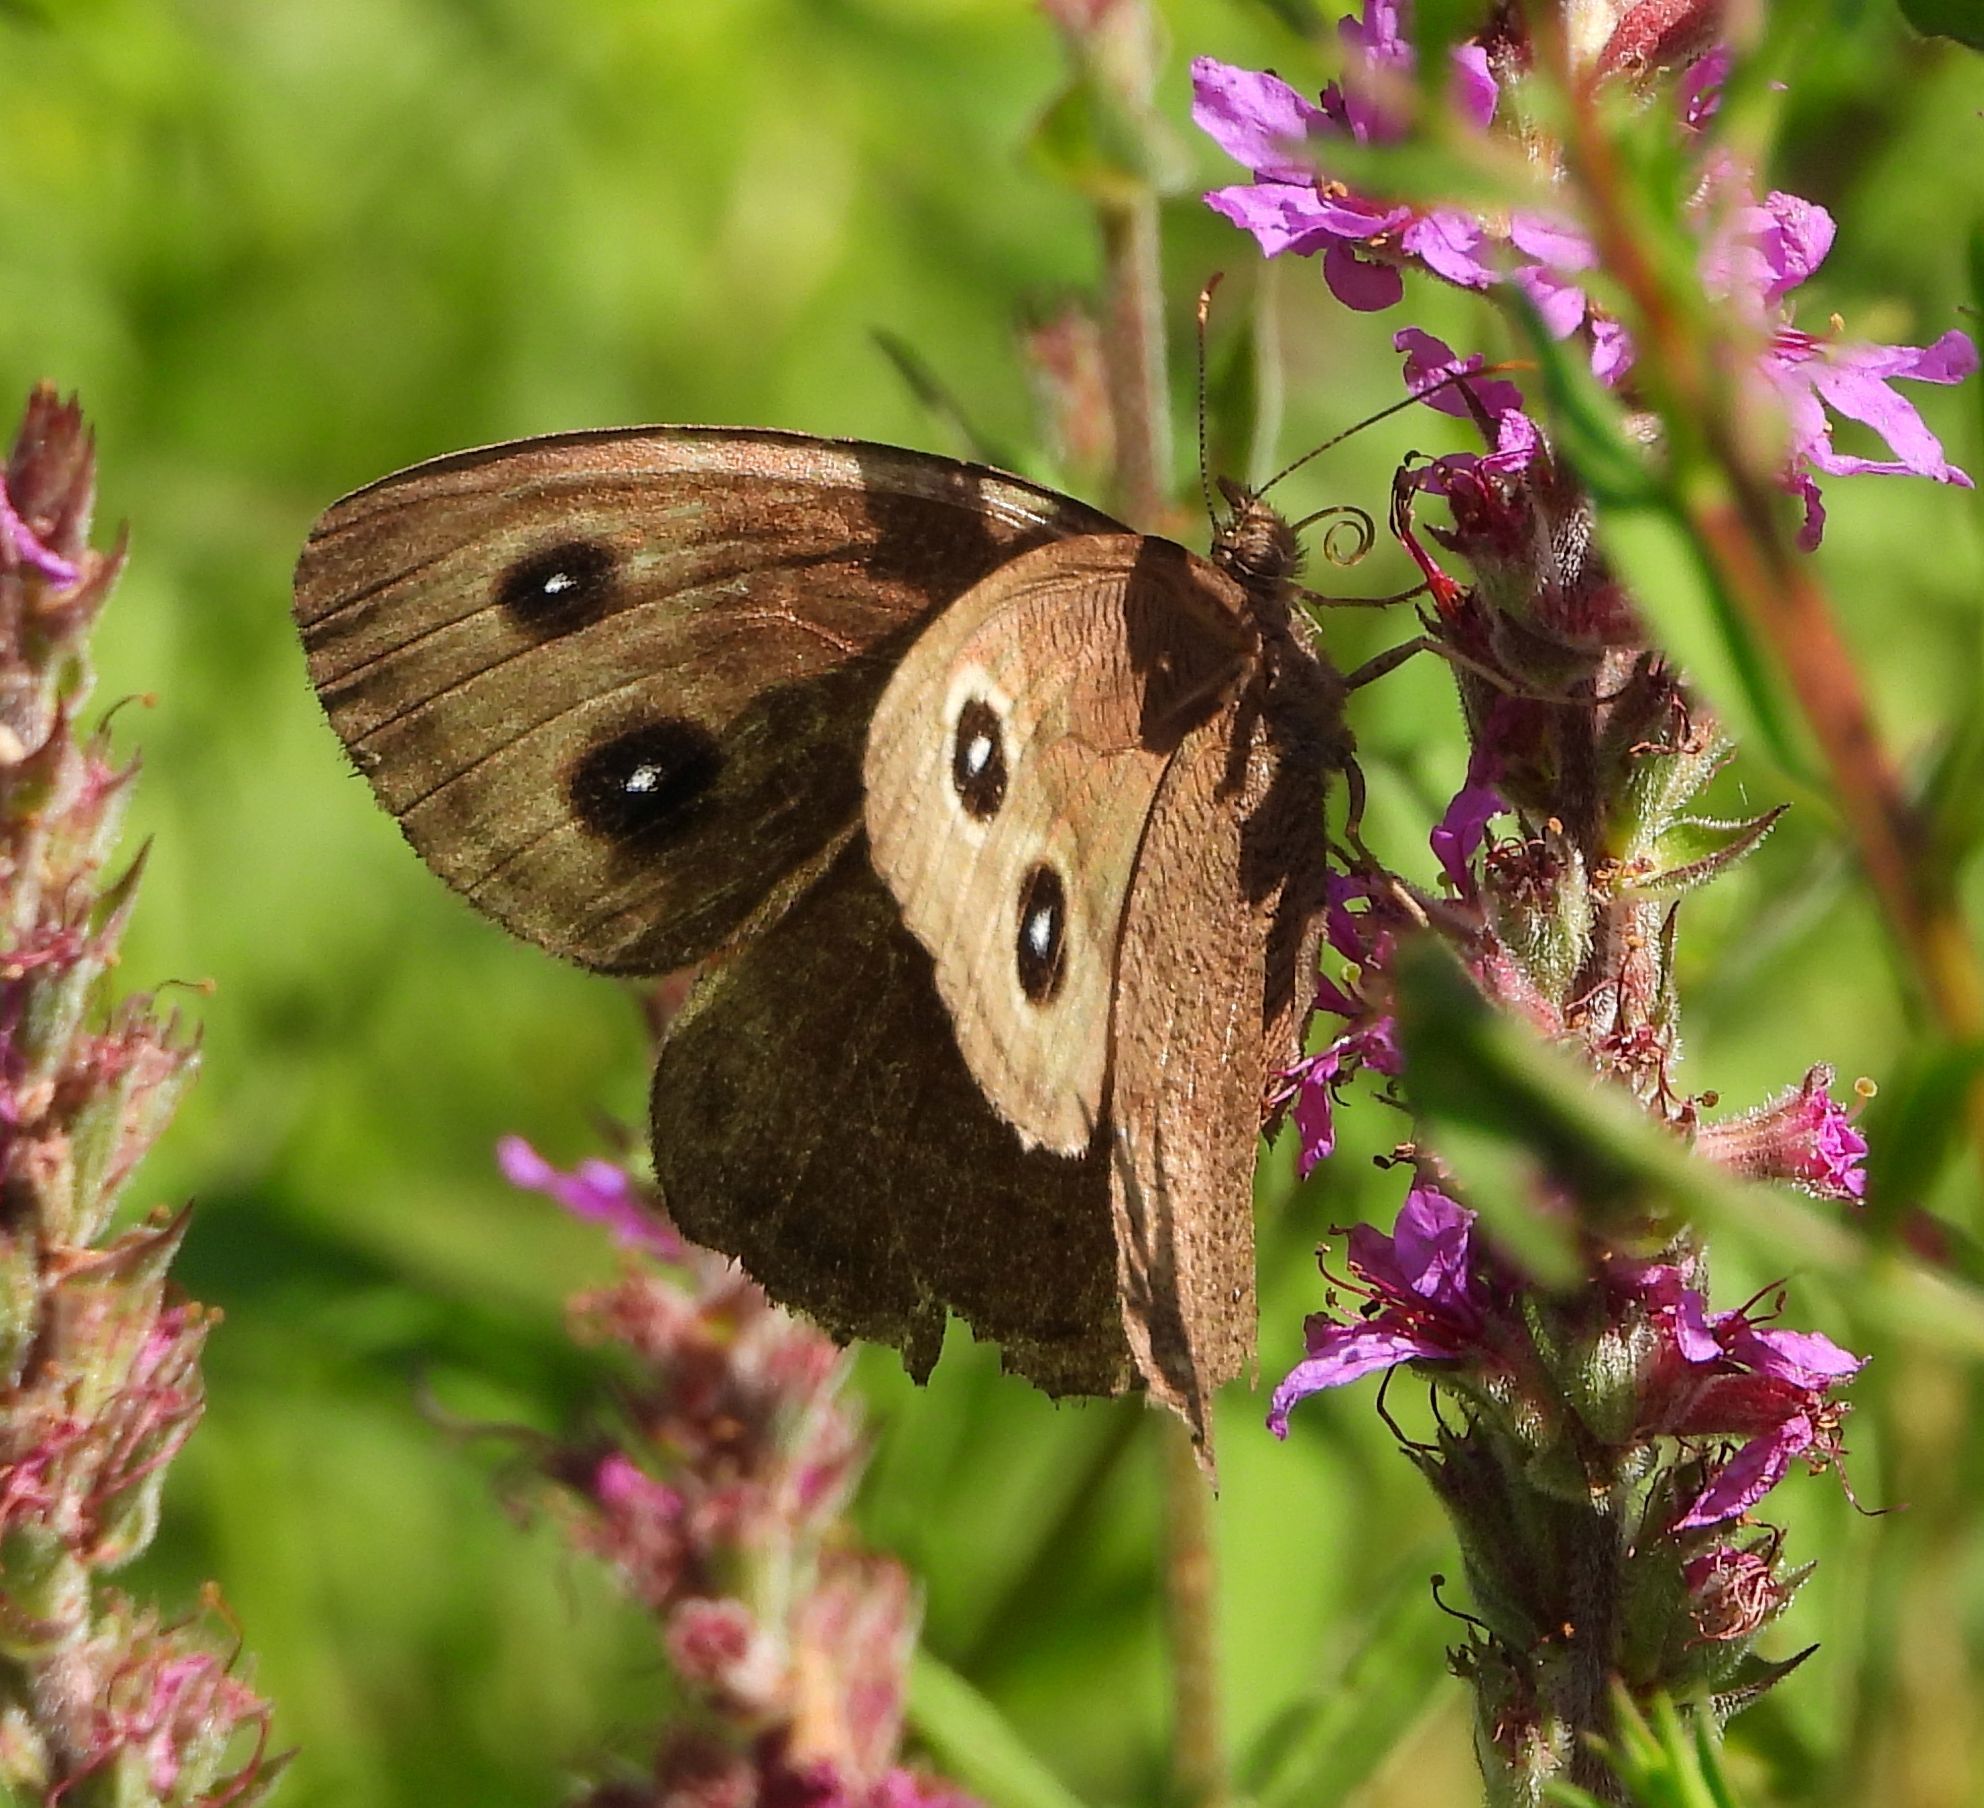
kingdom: Animalia
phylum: Arthropoda
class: Insecta
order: Lepidoptera
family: Nymphalidae
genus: Cercyonis
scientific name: Cercyonis pegala
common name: Common wood-nymph
